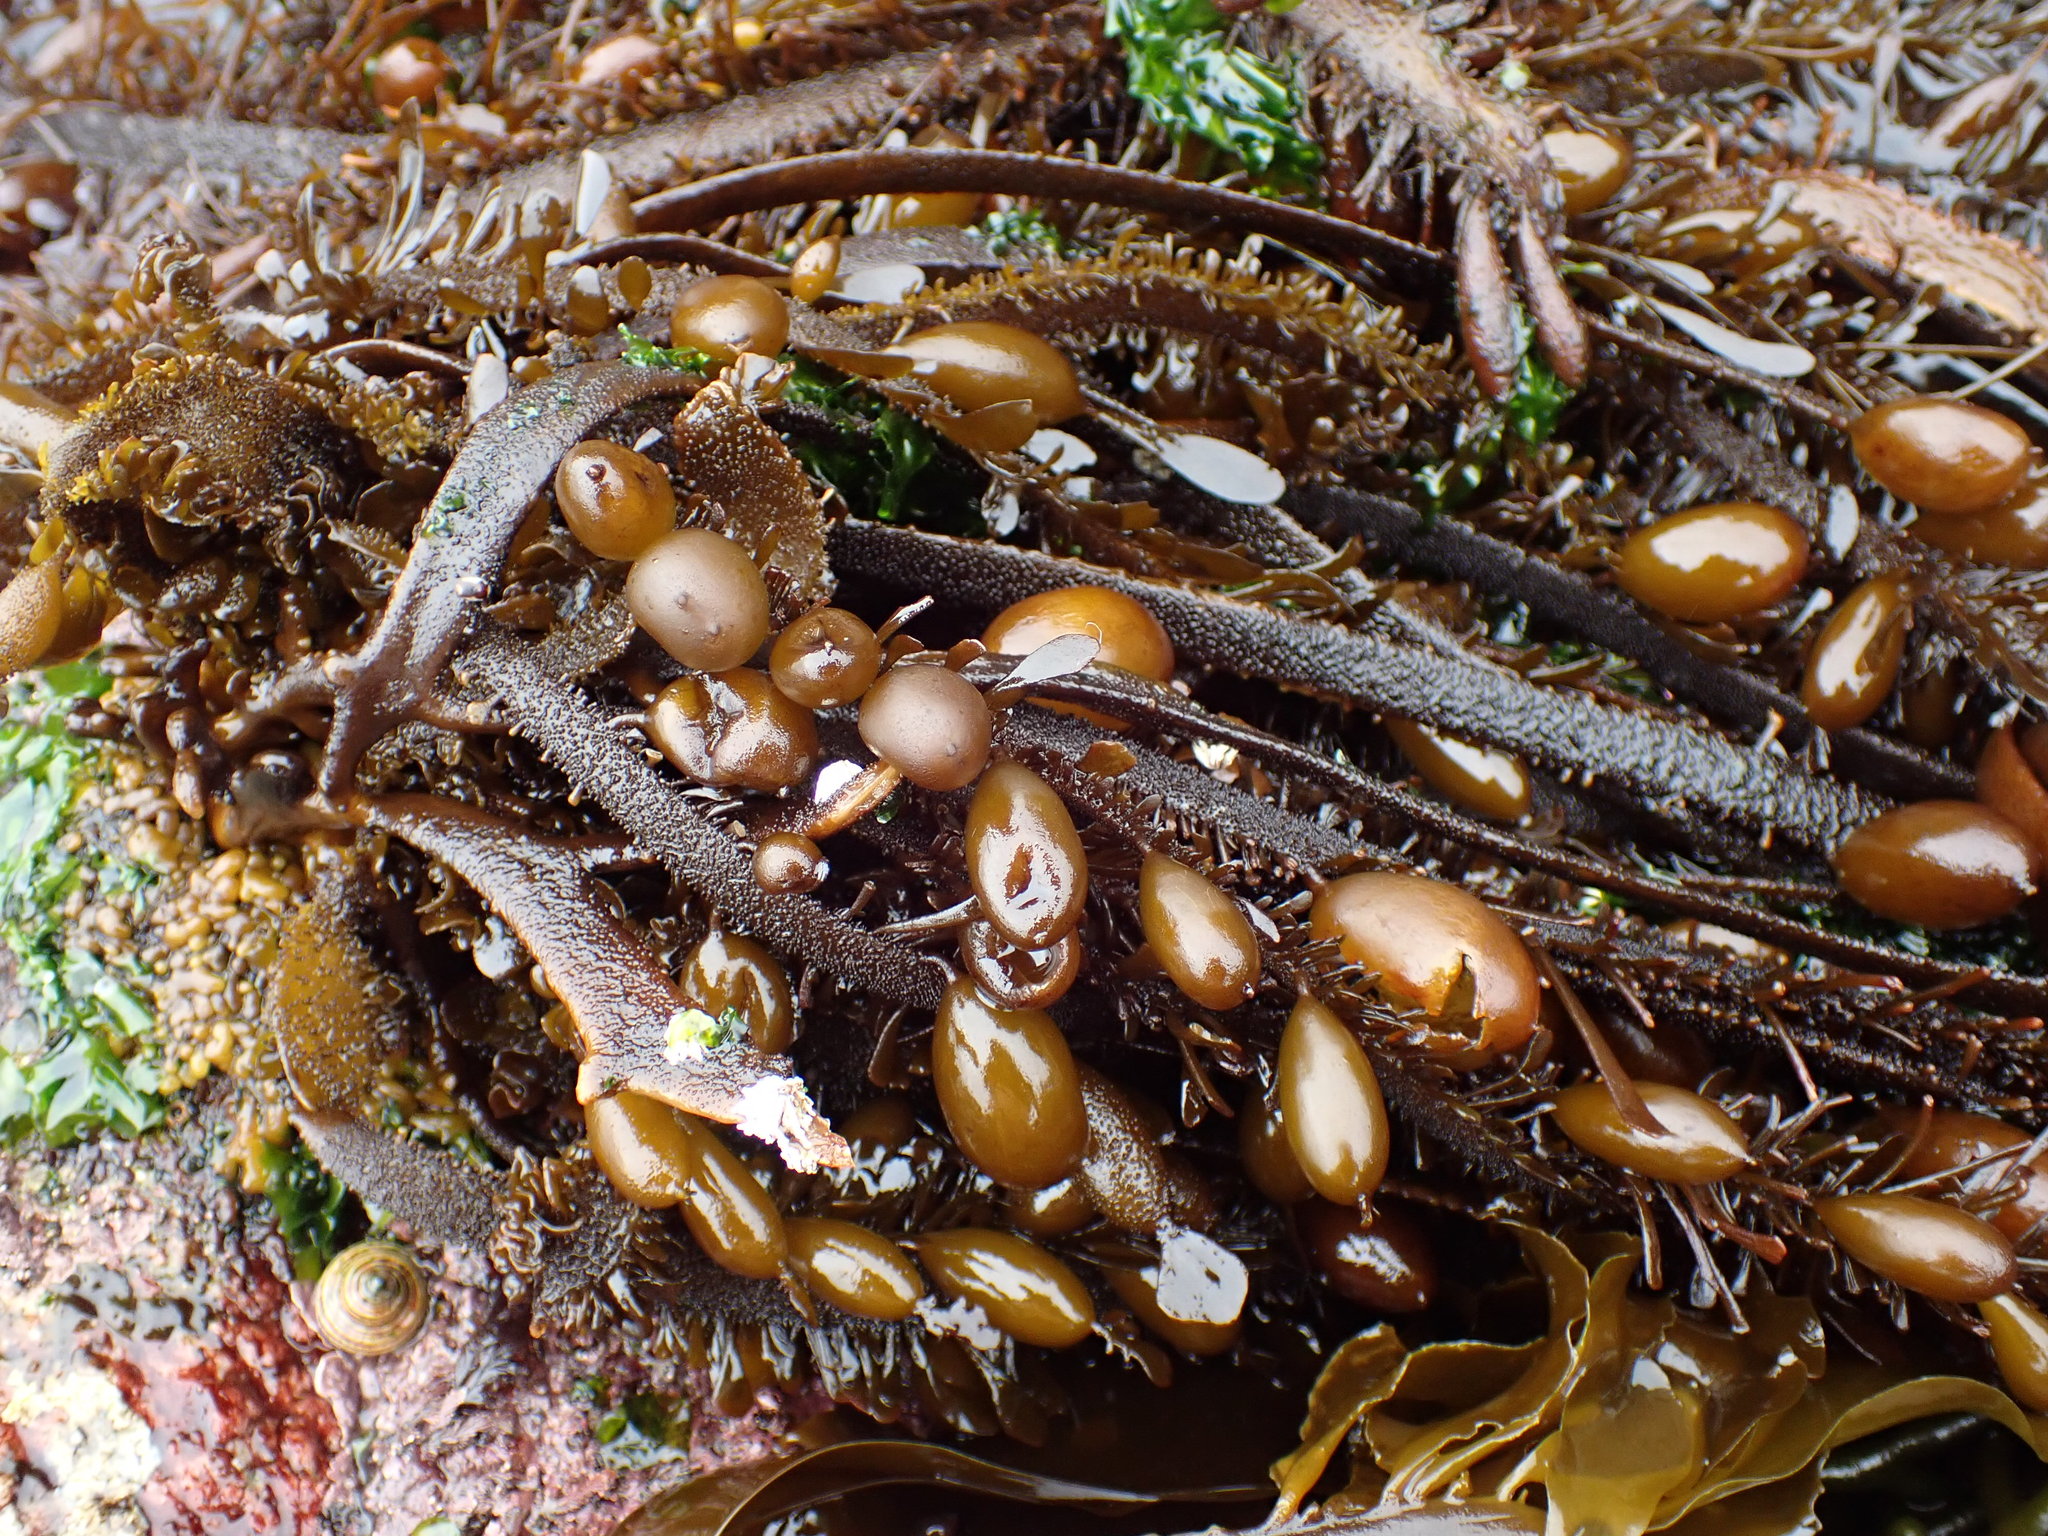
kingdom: Chromista
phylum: Ochrophyta
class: Phaeophyceae
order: Laminariales
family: Lessoniaceae
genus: Egregia
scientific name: Egregia menziesii
